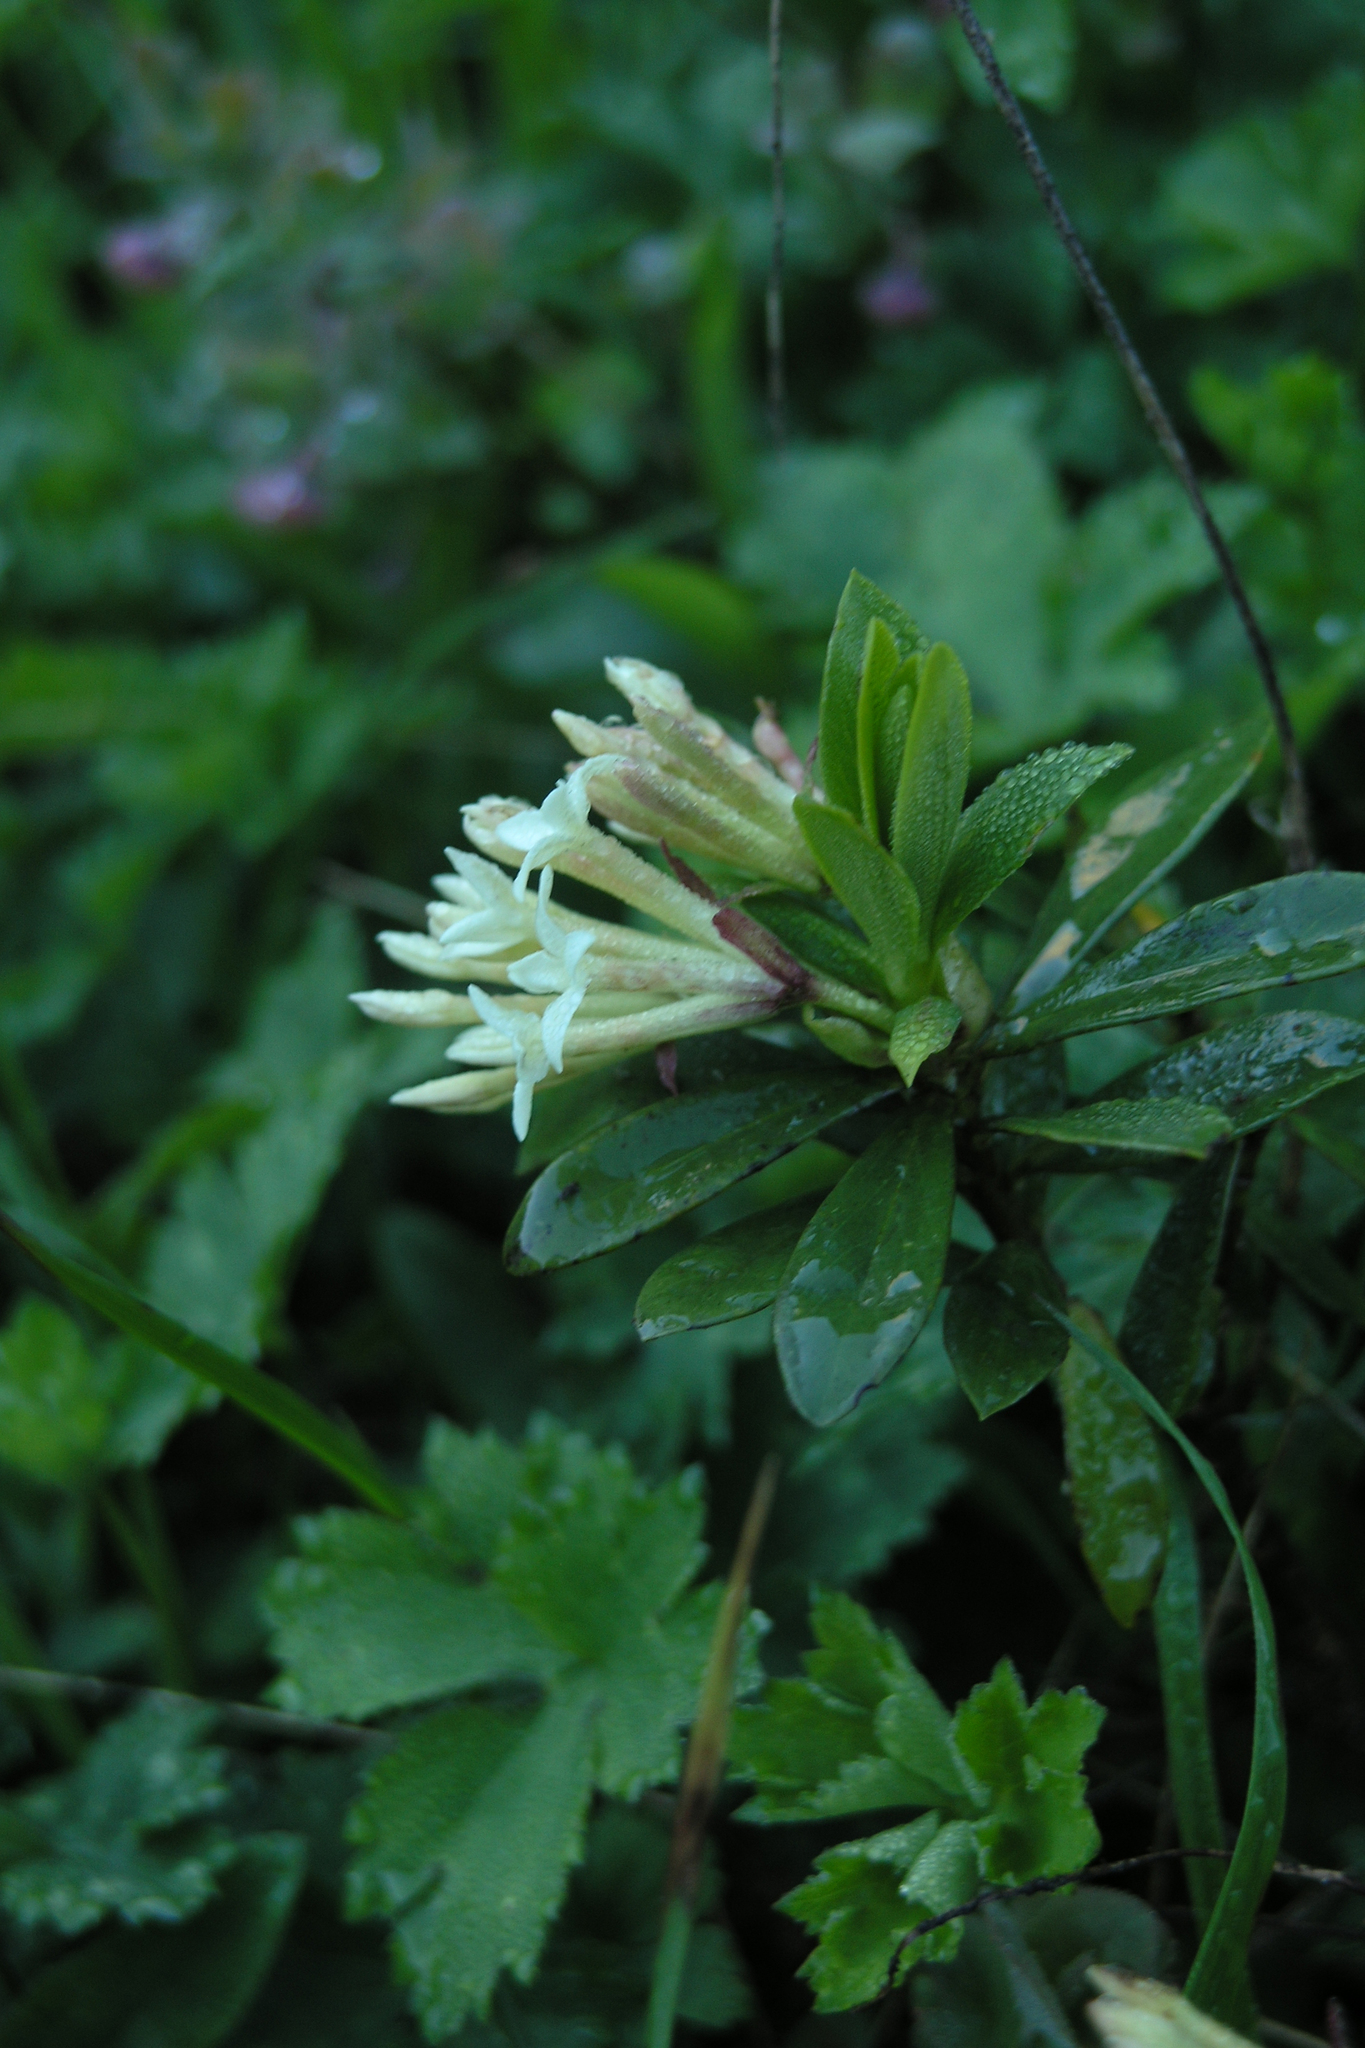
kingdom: Plantae
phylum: Tracheophyta
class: Magnoliopsida
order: Malvales
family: Thymelaeaceae
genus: Daphne
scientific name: Daphne glomerata
